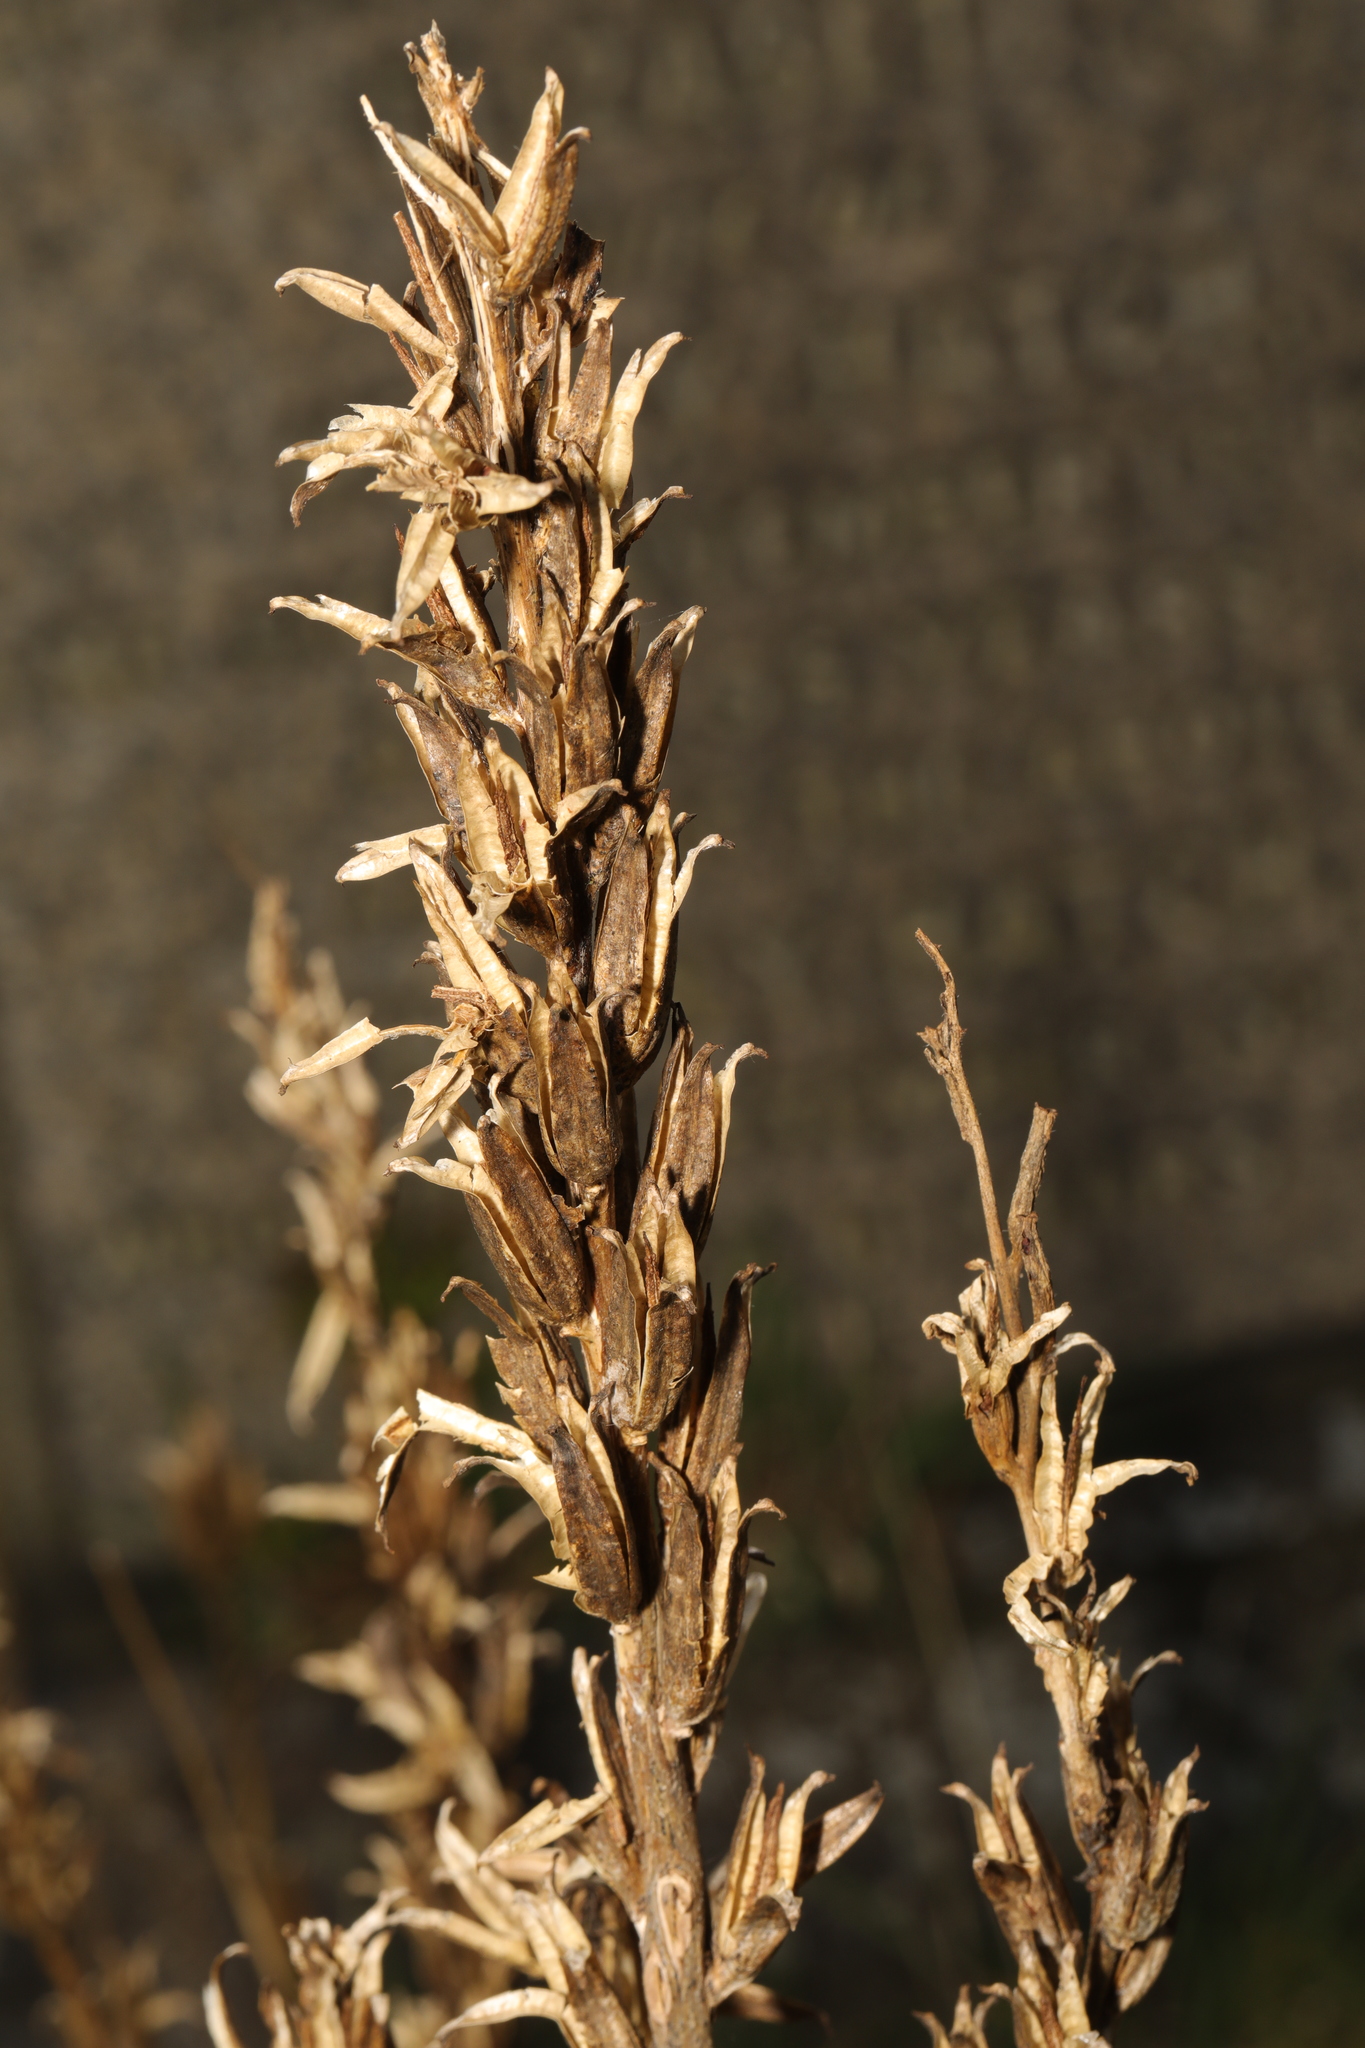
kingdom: Plantae
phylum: Tracheophyta
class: Magnoliopsida
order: Myrtales
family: Onagraceae
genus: Oenothera
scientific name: Oenothera
